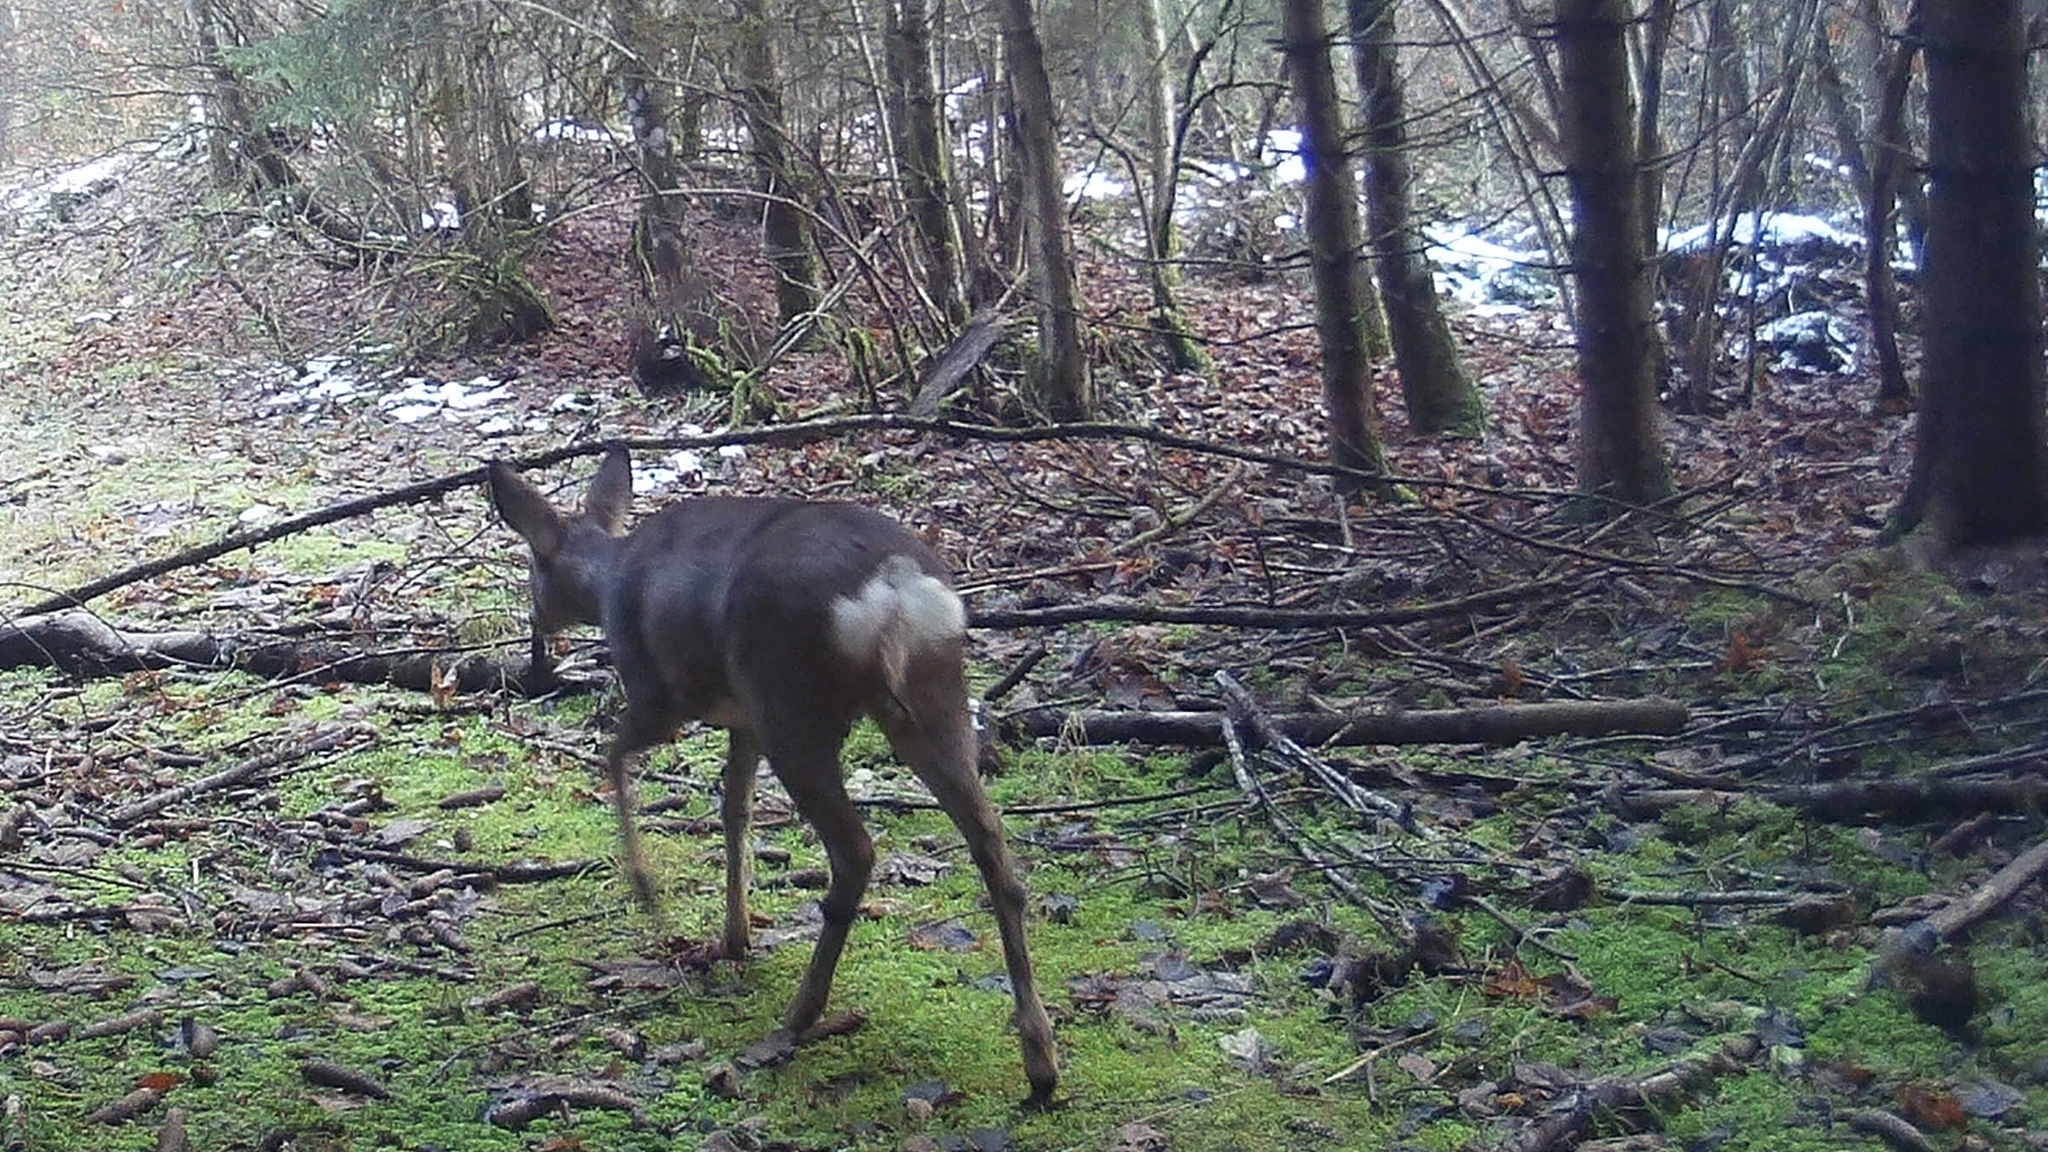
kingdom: Animalia
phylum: Chordata
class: Mammalia
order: Artiodactyla
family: Cervidae
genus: Capreolus
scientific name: Capreolus capreolus
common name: Western roe deer
